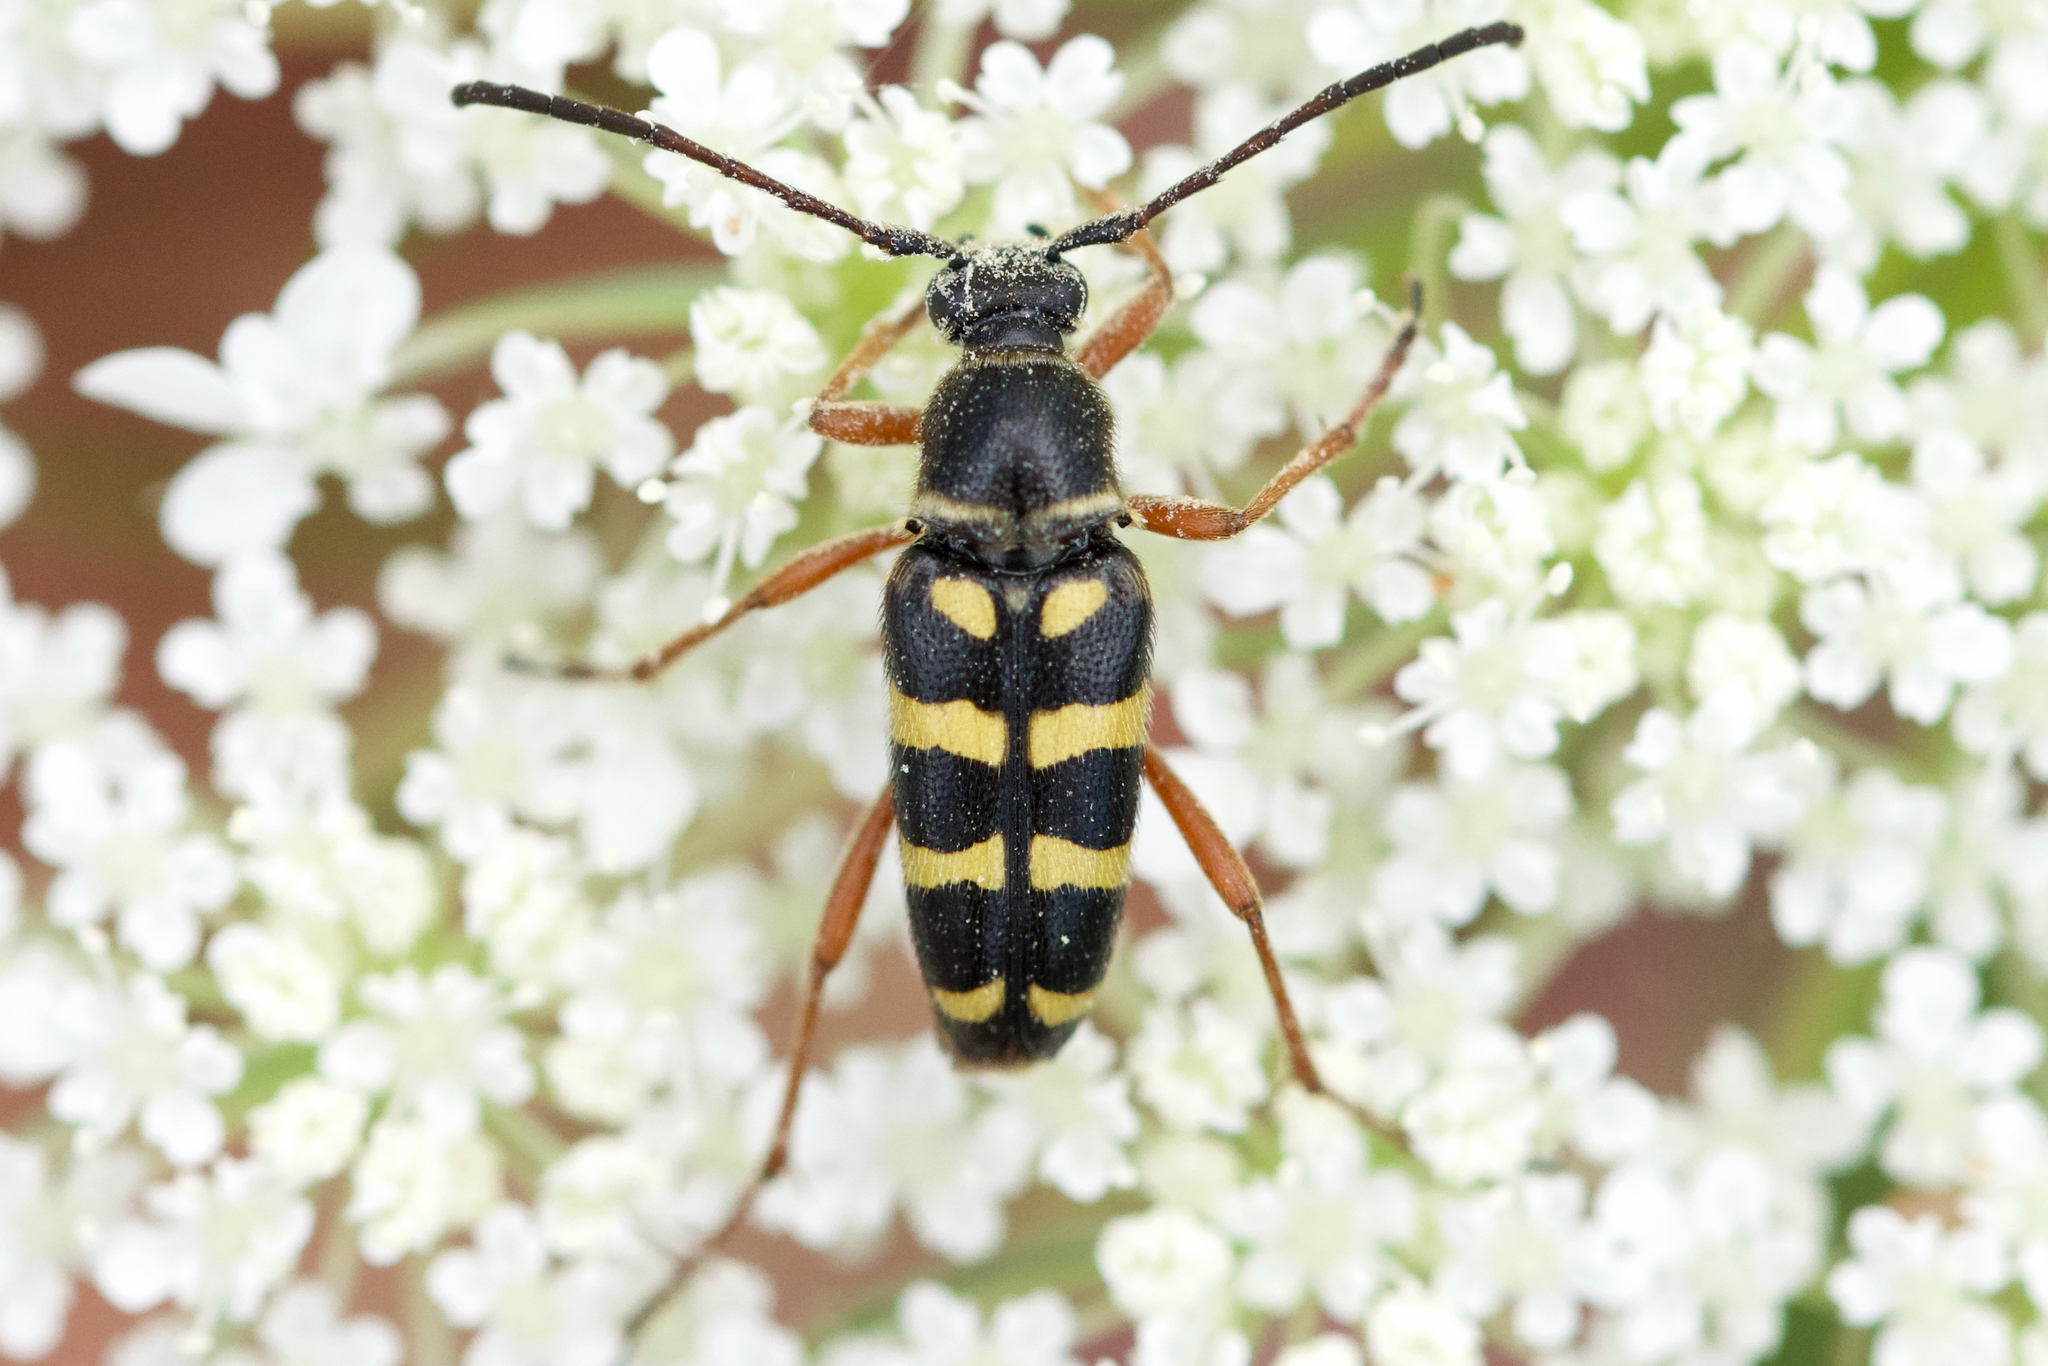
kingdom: Animalia
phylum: Arthropoda
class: Insecta
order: Coleoptera
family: Cerambycidae
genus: Typocerus
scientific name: Typocerus sparsus
